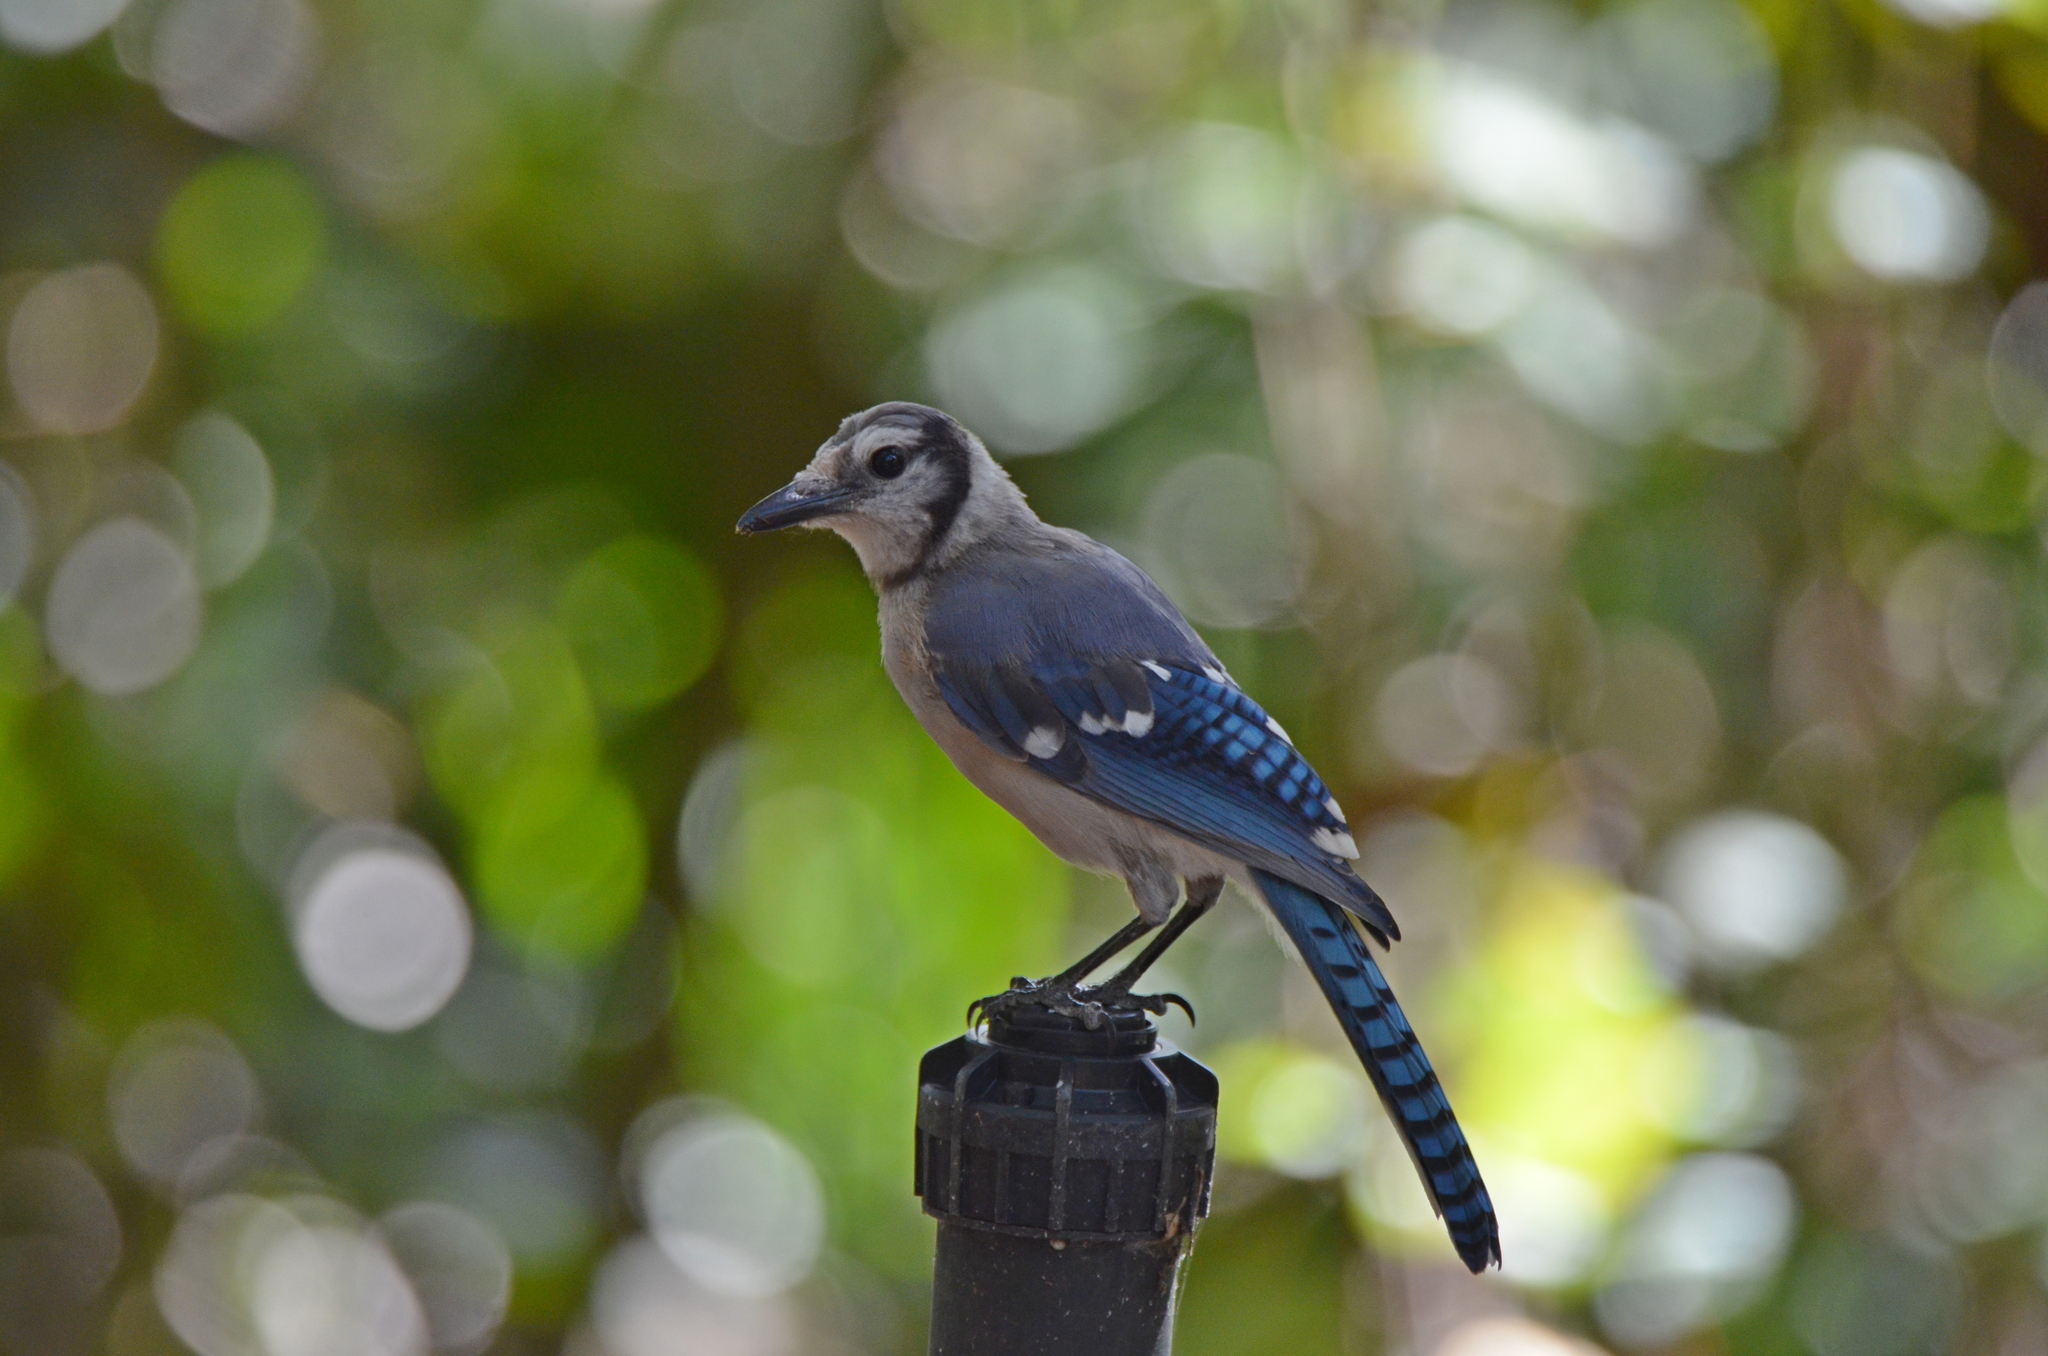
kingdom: Animalia
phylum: Chordata
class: Aves
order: Passeriformes
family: Corvidae
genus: Cyanocitta
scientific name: Cyanocitta cristata
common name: Blue jay
